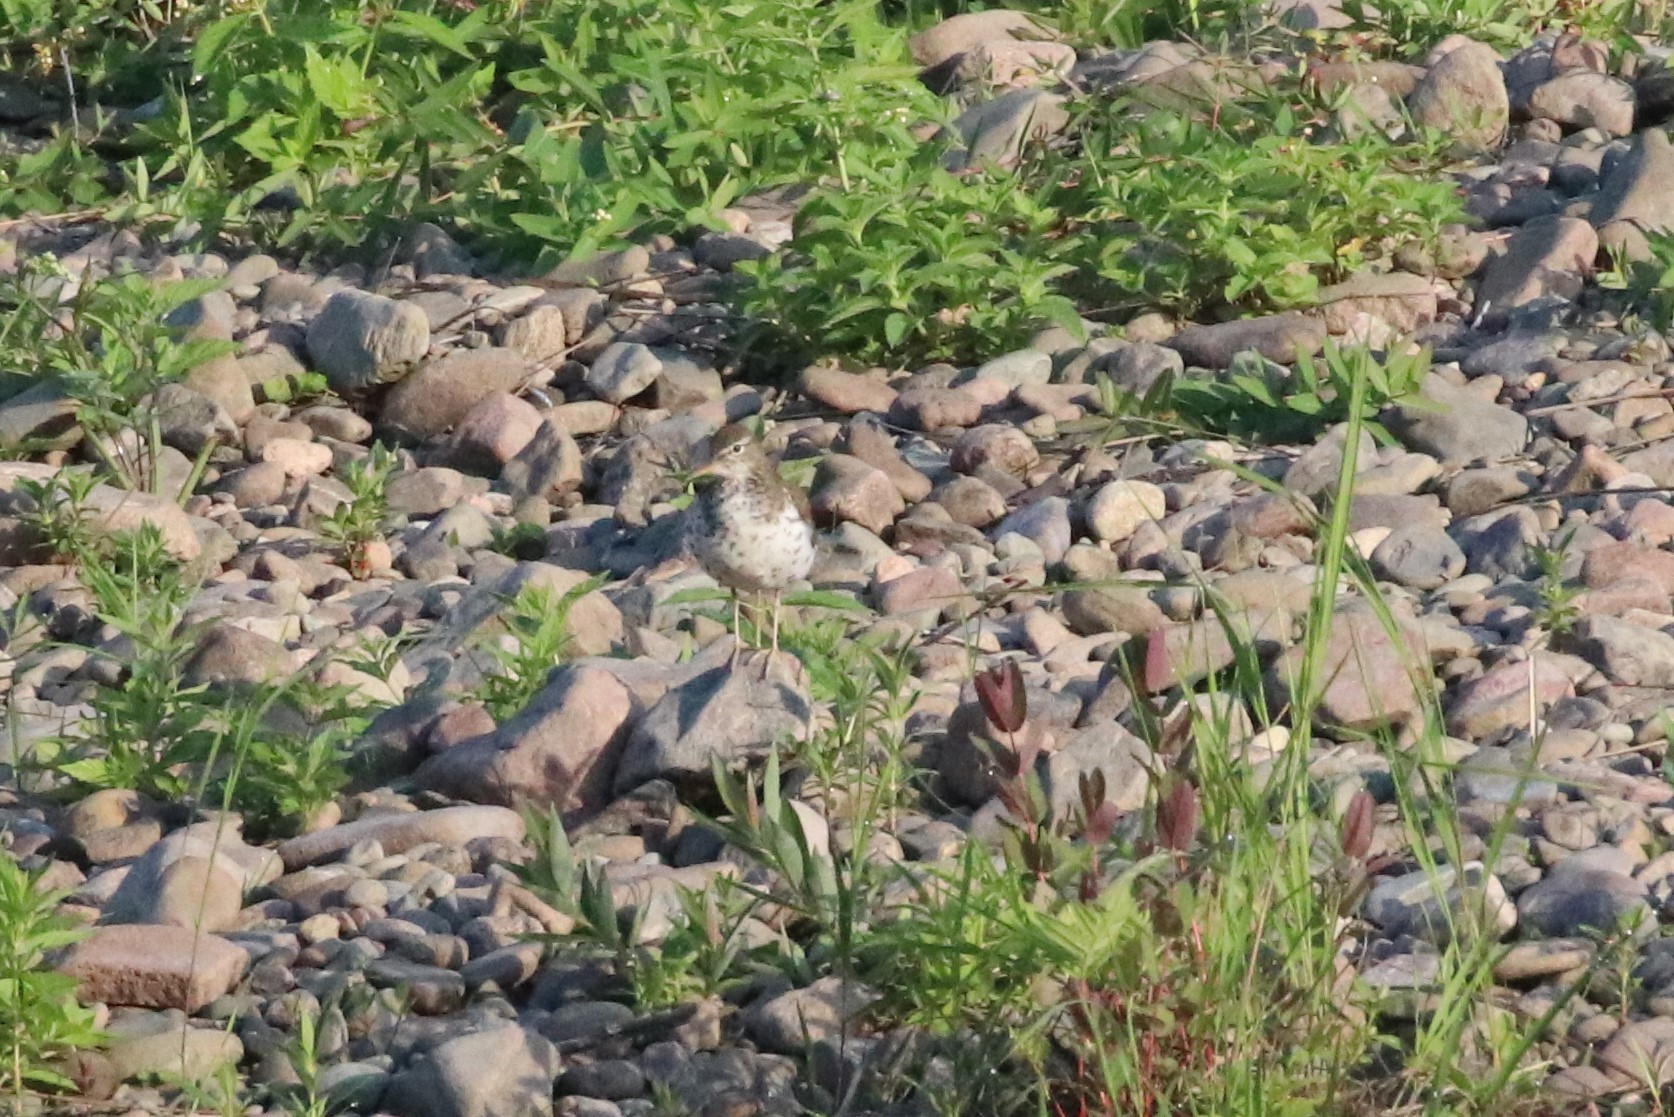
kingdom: Animalia
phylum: Chordata
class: Aves
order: Charadriiformes
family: Scolopacidae
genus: Actitis
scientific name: Actitis macularius
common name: Spotted sandpiper
